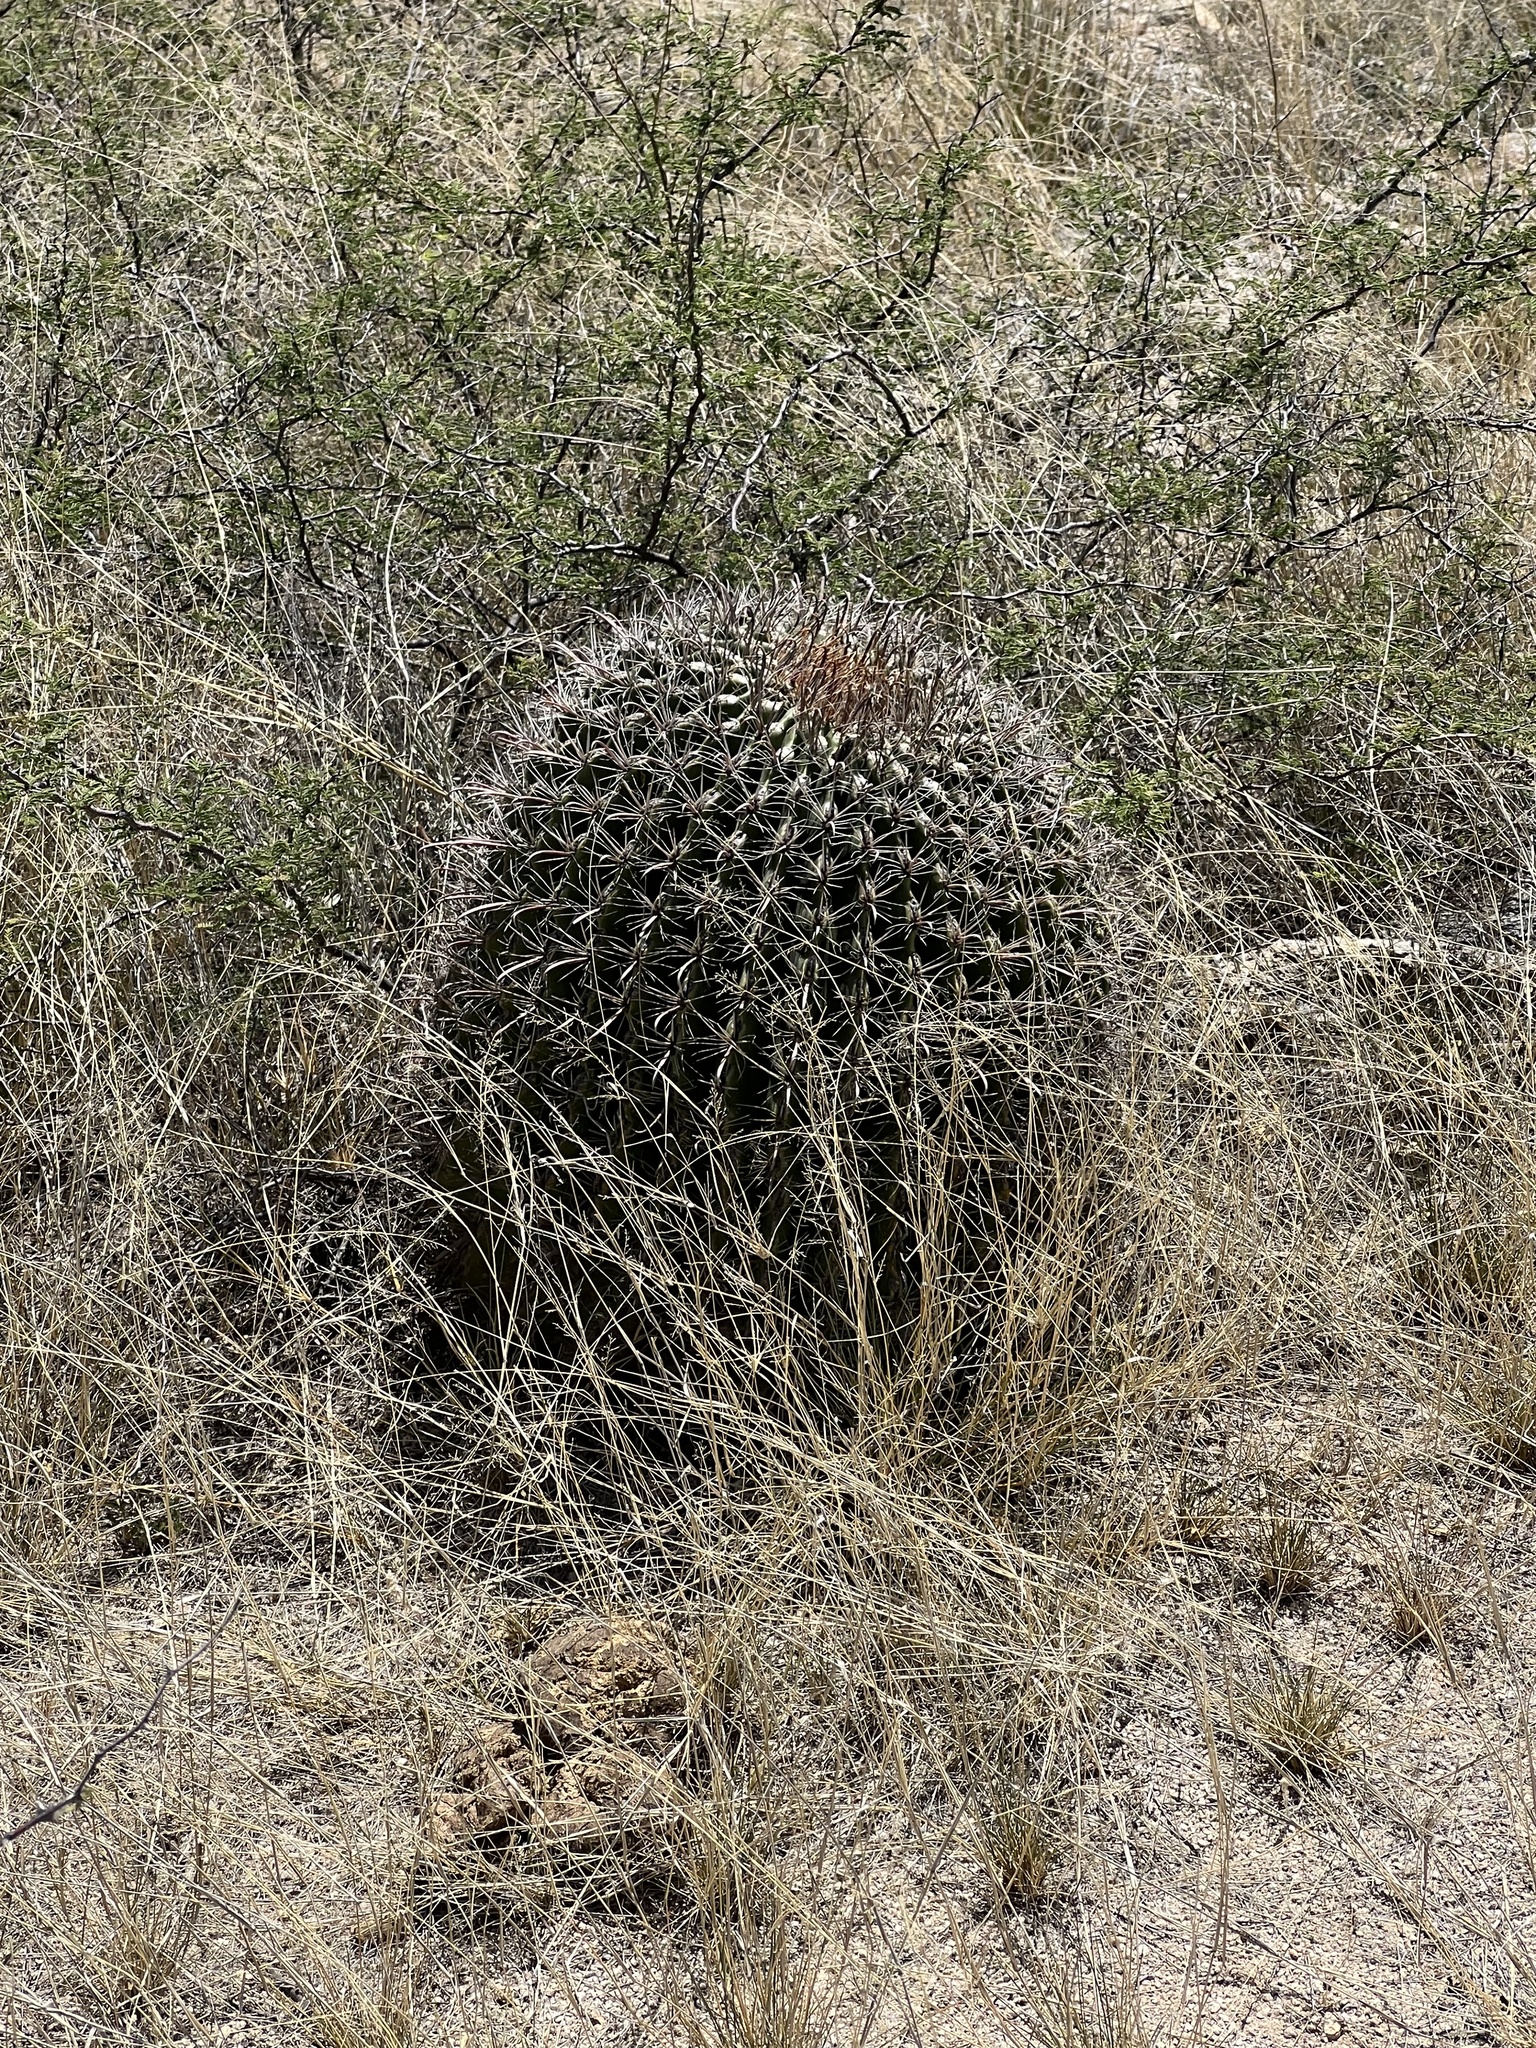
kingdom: Plantae
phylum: Tracheophyta
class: Magnoliopsida
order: Caryophyllales
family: Cactaceae
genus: Ferocactus
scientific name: Ferocactus wislizeni
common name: Candy barrel cactus
